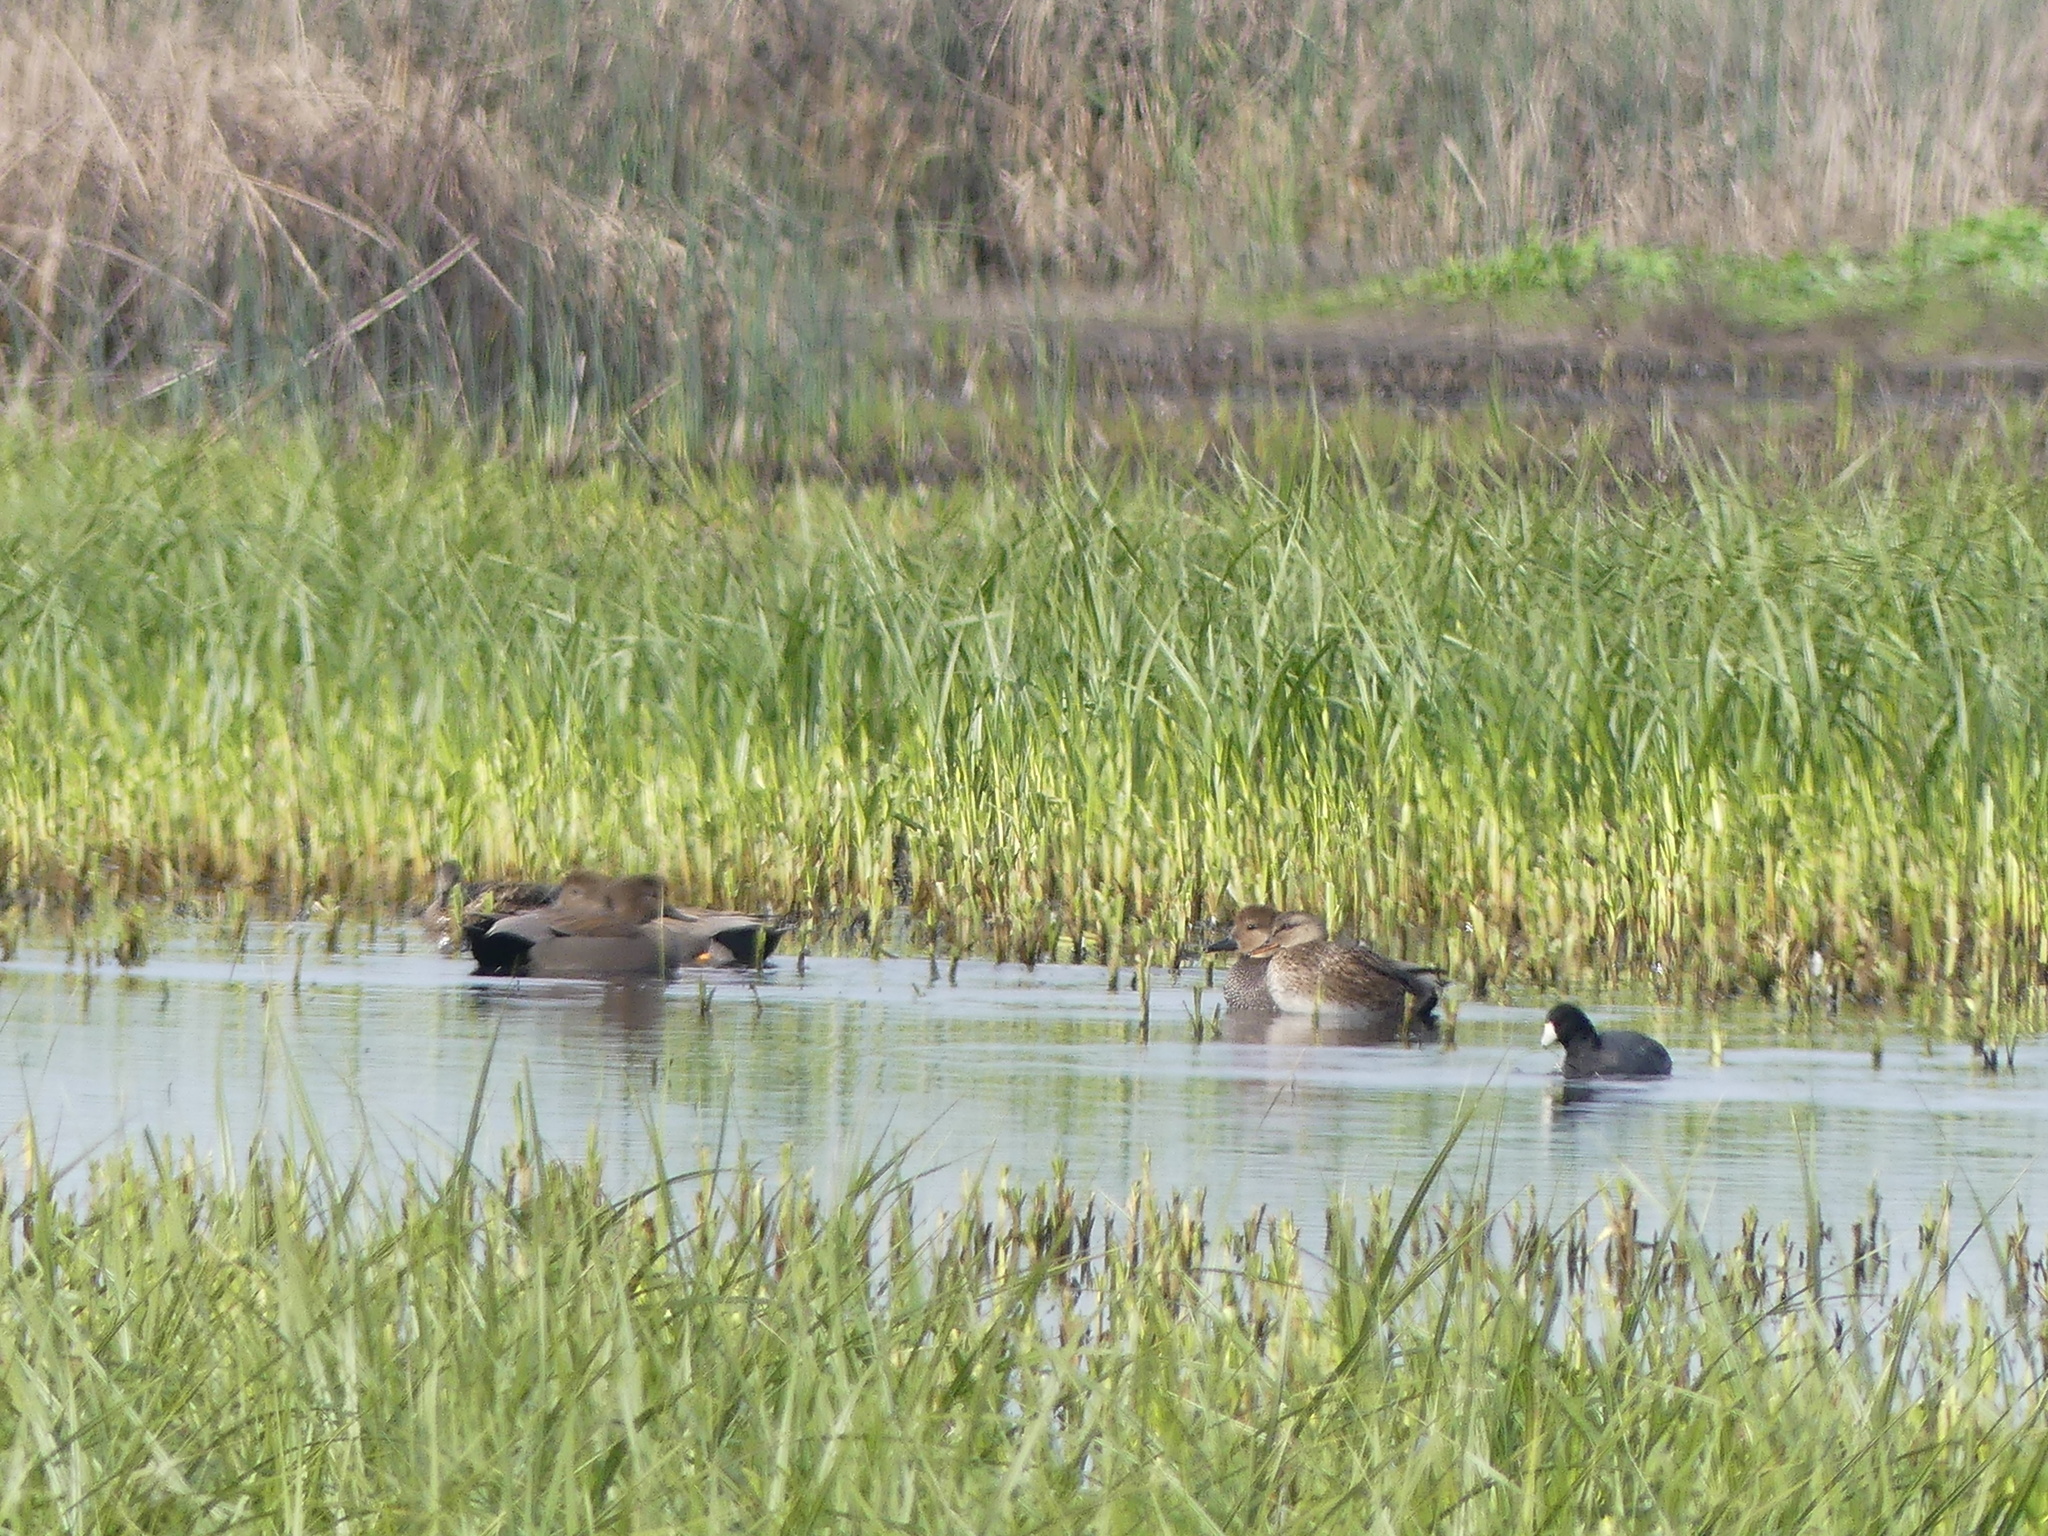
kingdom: Animalia
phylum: Chordata
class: Aves
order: Anseriformes
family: Anatidae
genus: Mareca
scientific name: Mareca strepera
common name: Gadwall
